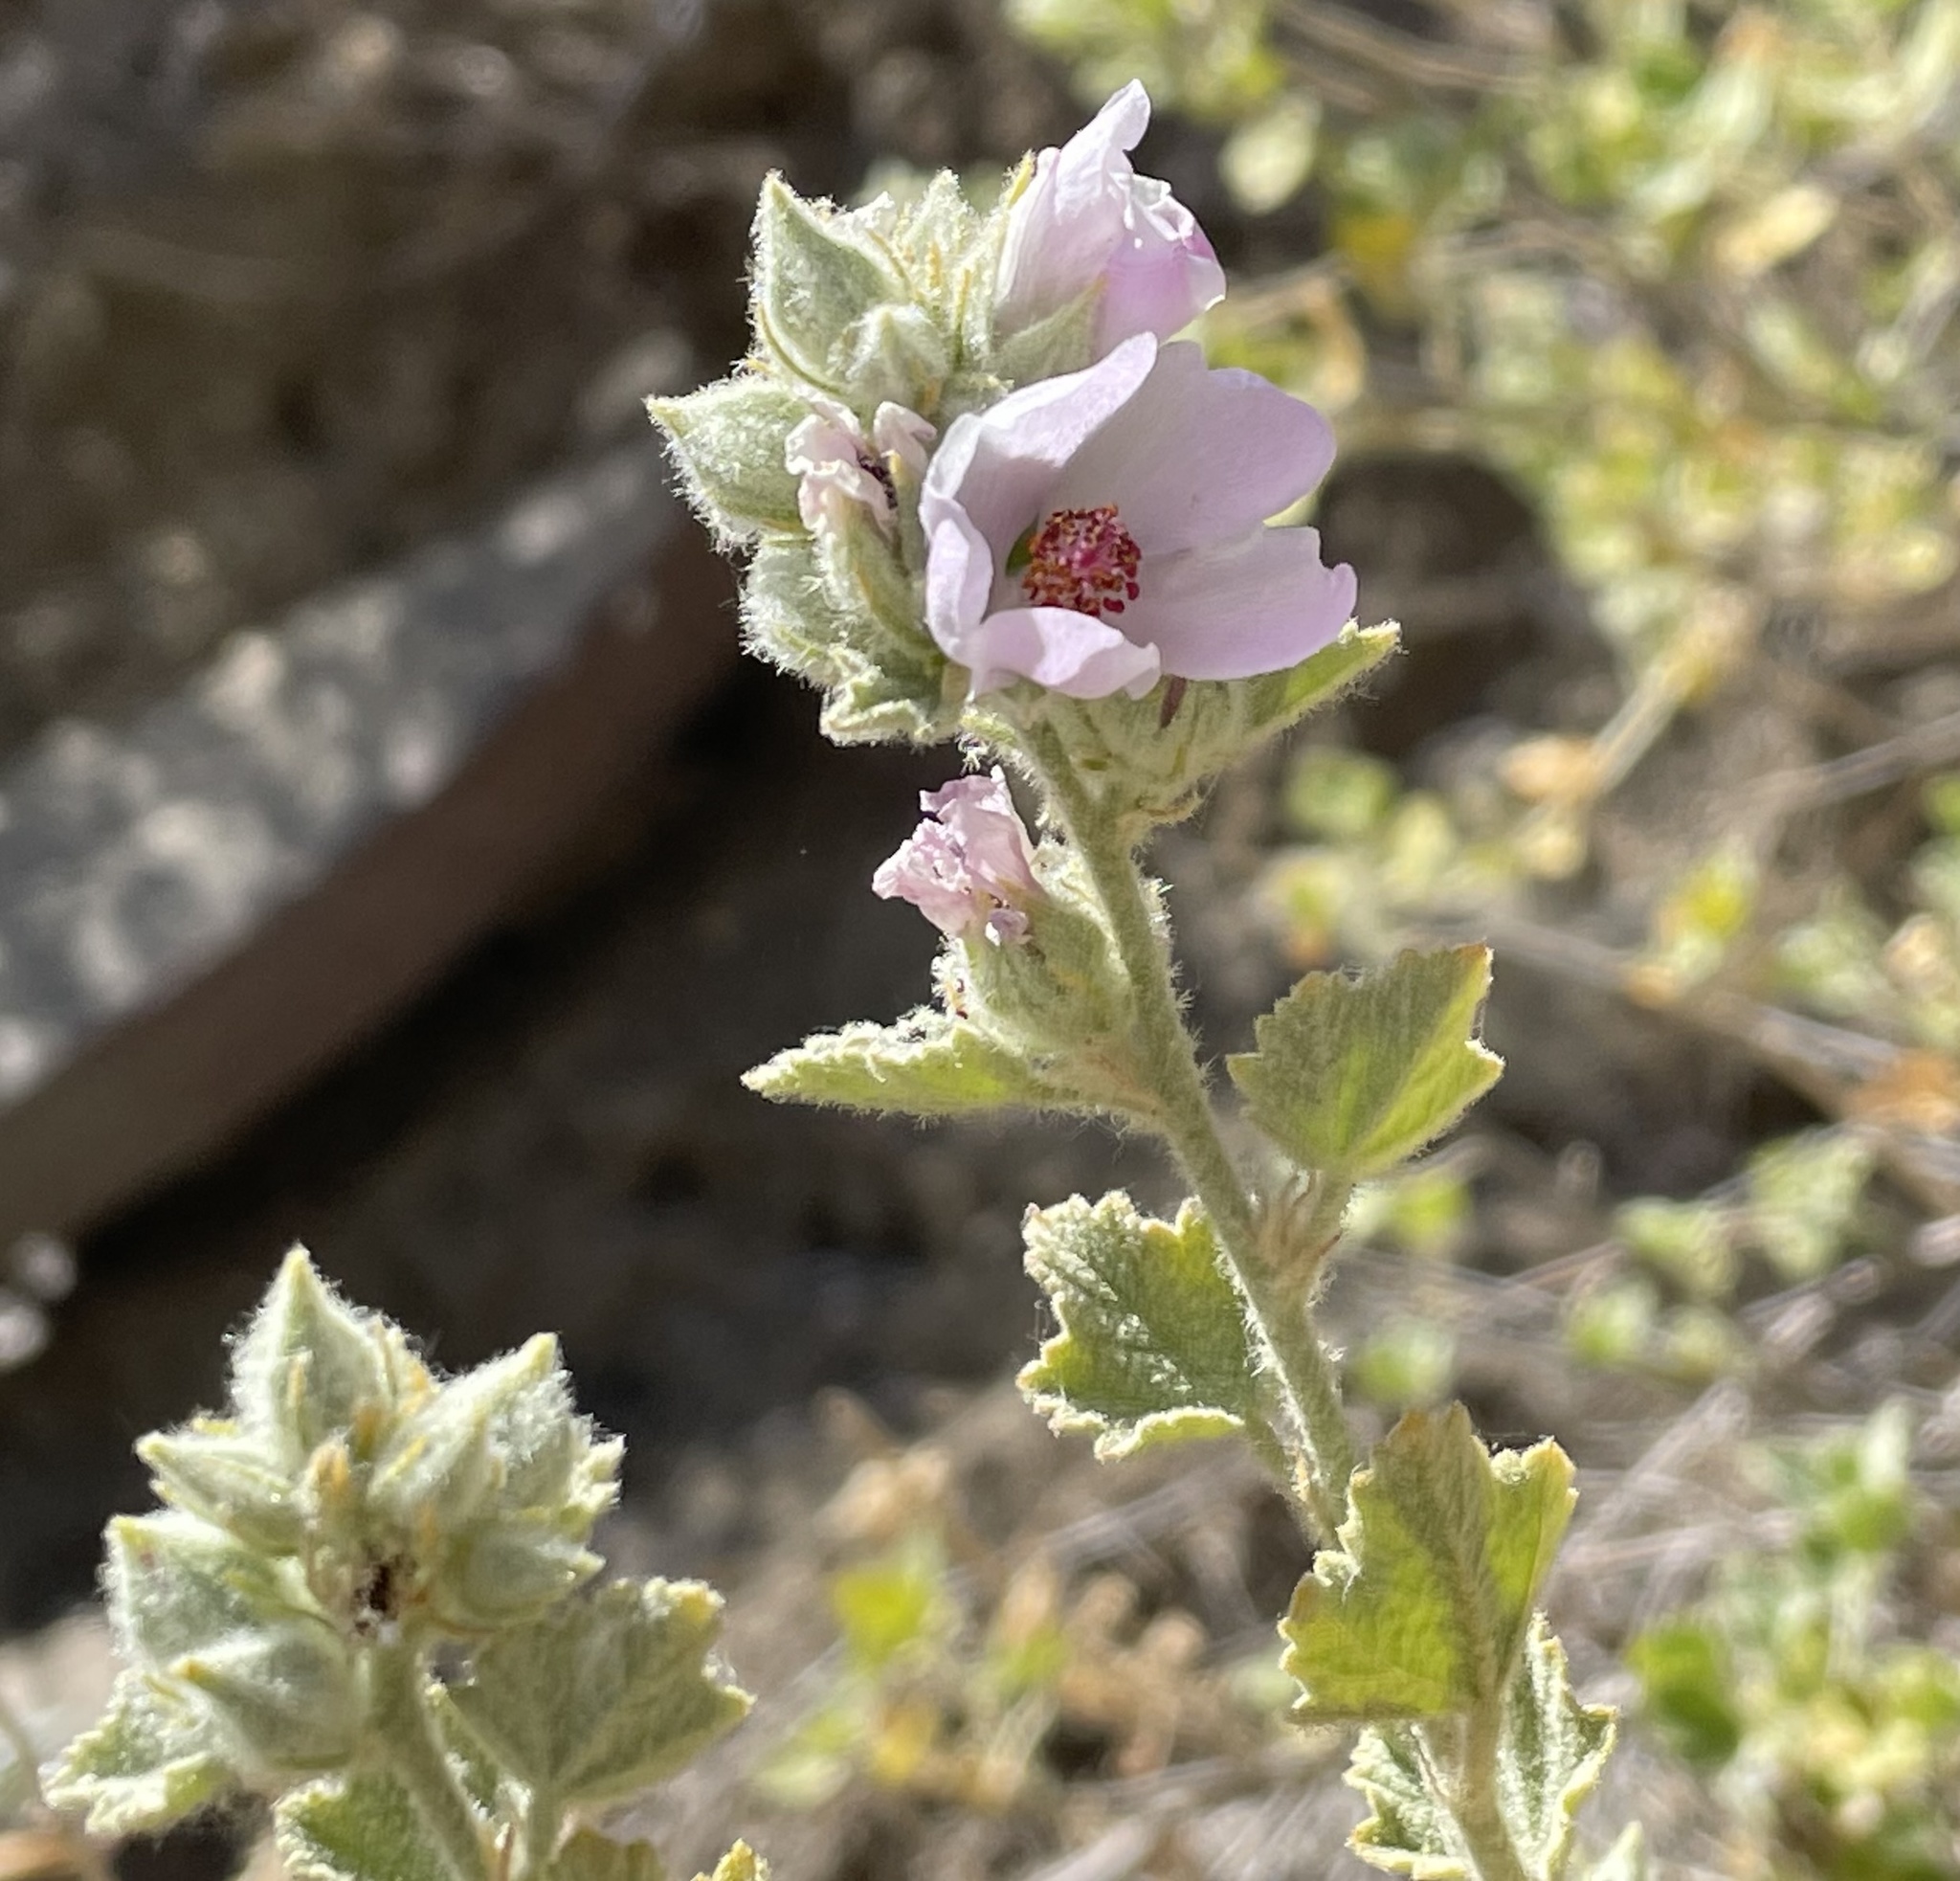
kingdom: Plantae
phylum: Tracheophyta
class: Magnoliopsida
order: Malvales
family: Malvaceae
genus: Malacothamnus
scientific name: Malacothamnus marrubioides
